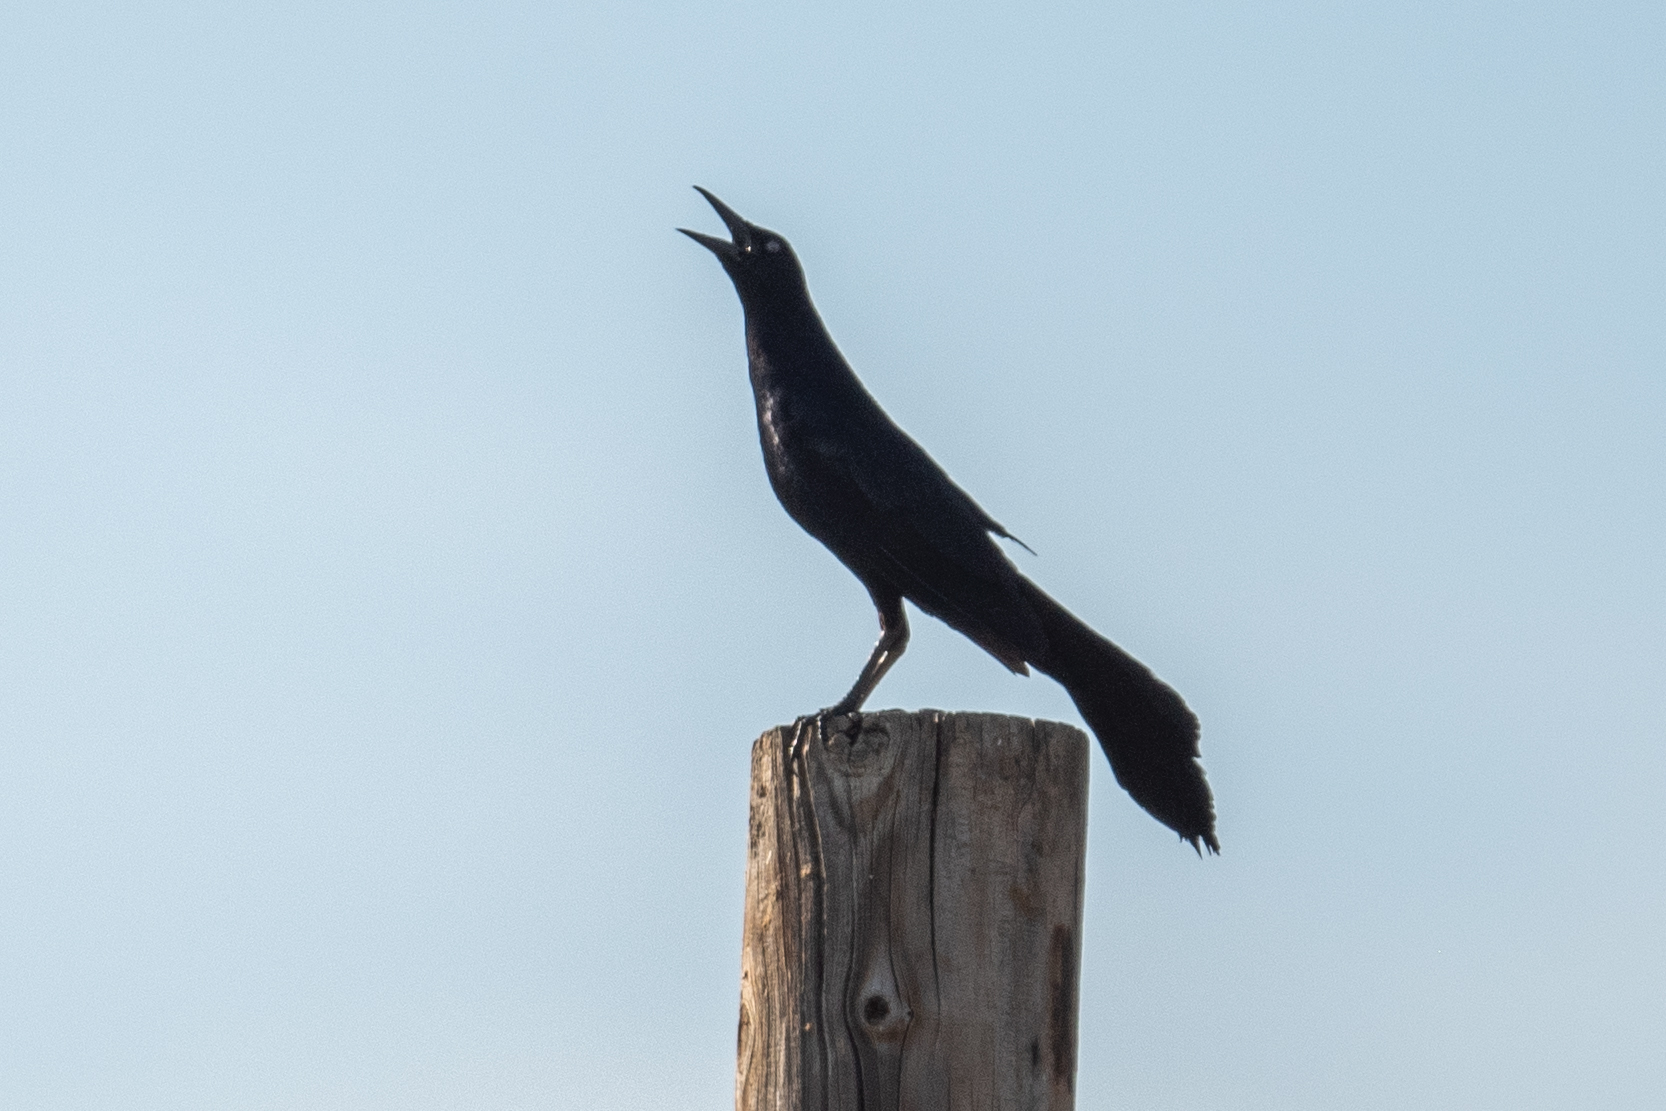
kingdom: Animalia
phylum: Chordata
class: Aves
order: Passeriformes
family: Icteridae
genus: Quiscalus
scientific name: Quiscalus mexicanus
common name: Great-tailed grackle
